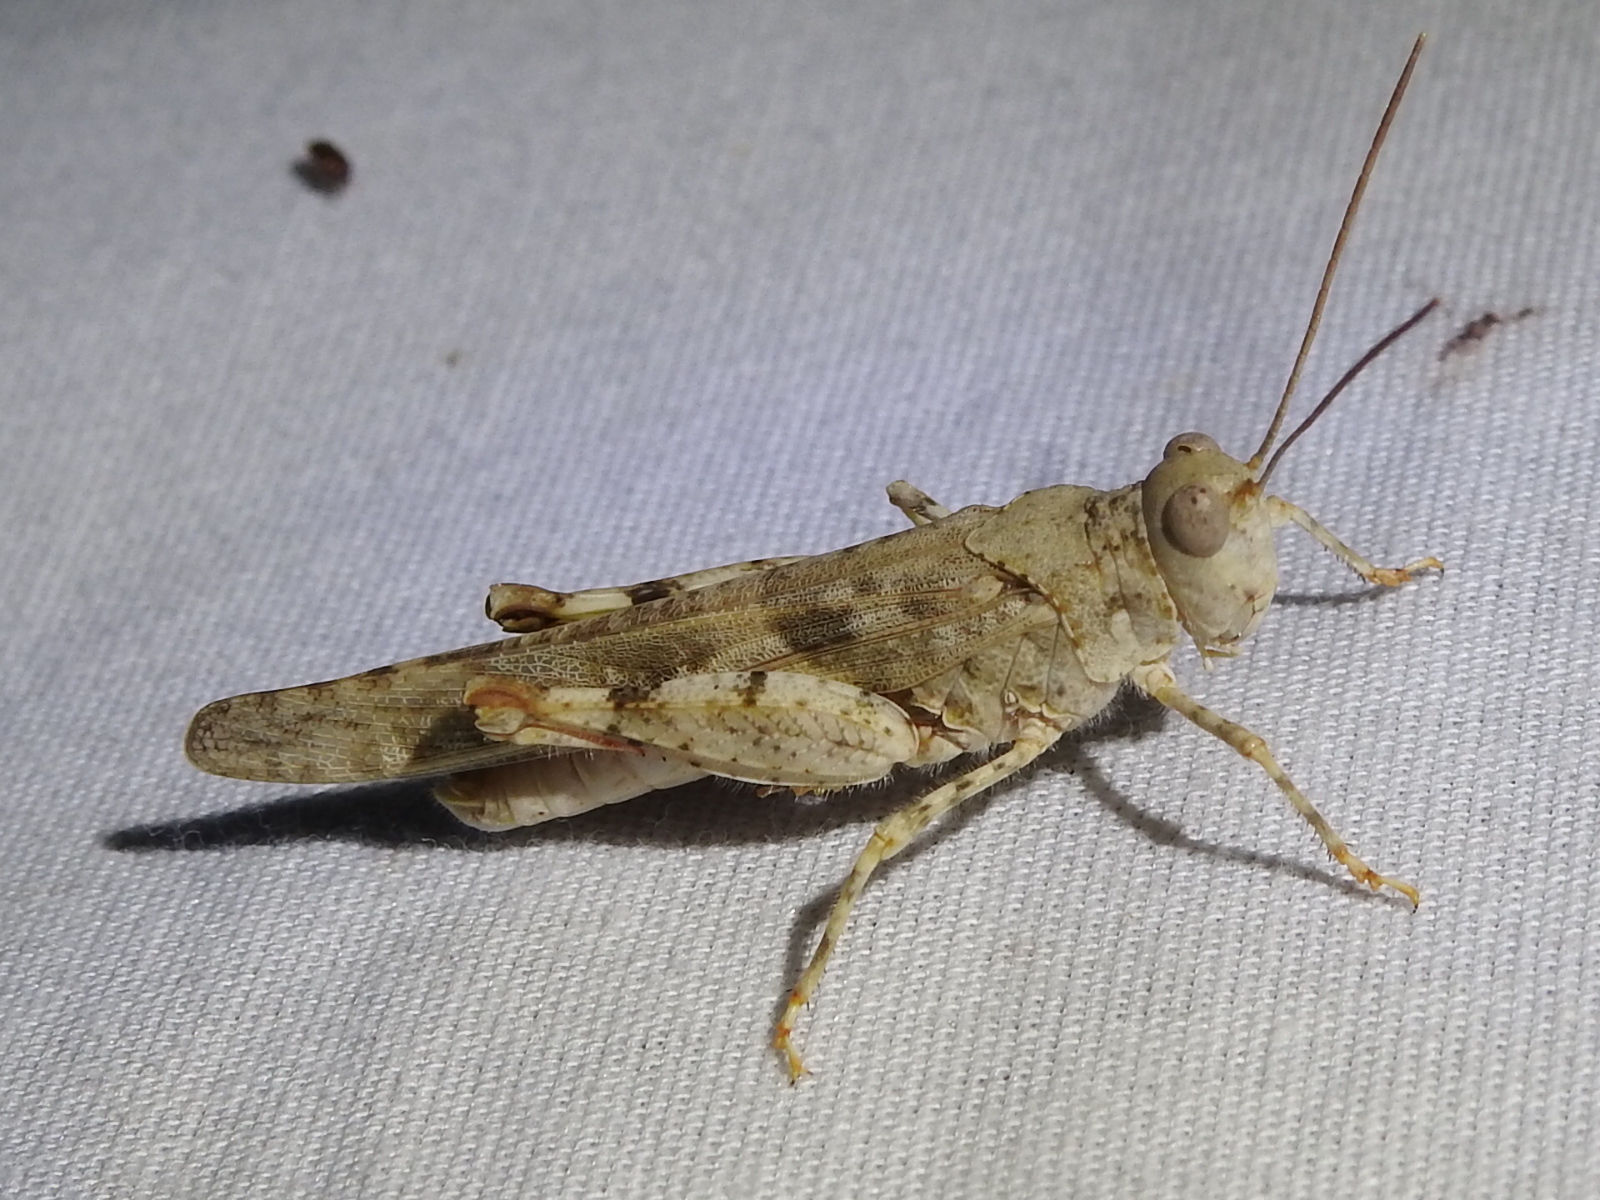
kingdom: Animalia
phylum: Arthropoda
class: Insecta
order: Orthoptera
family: Acrididae
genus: Trimerotropis
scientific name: Trimerotropis maritima
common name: Seaside locust
